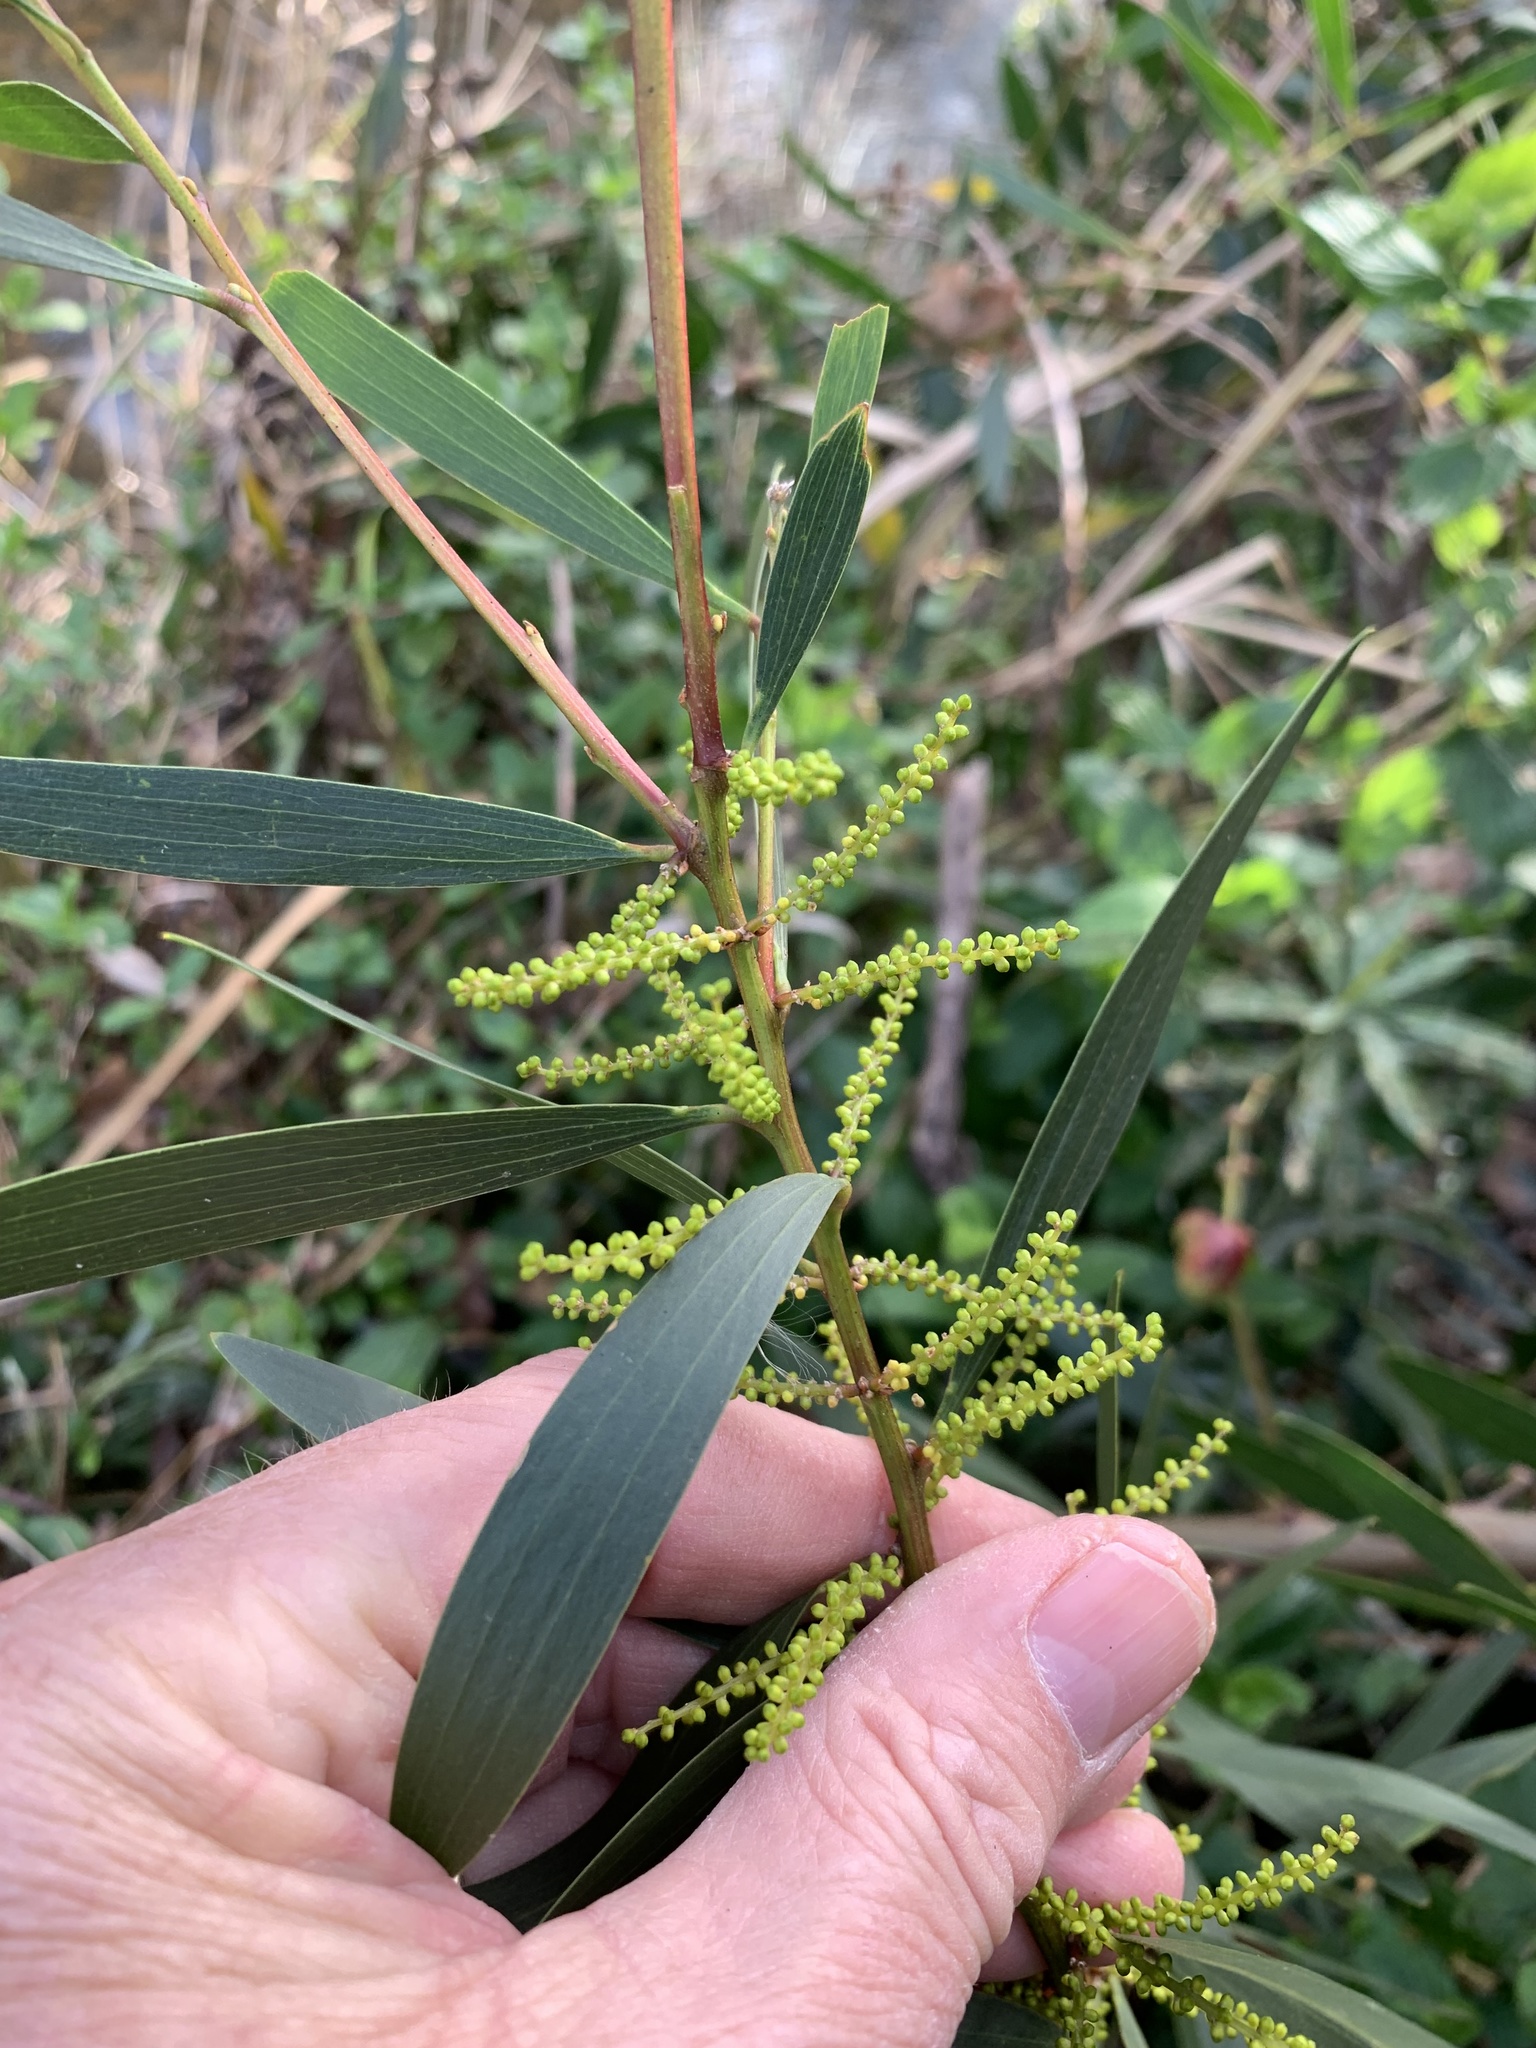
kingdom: Plantae
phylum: Tracheophyta
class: Magnoliopsida
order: Fabales
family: Fabaceae
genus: Acacia
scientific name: Acacia longifolia
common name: Sydney golden wattle
